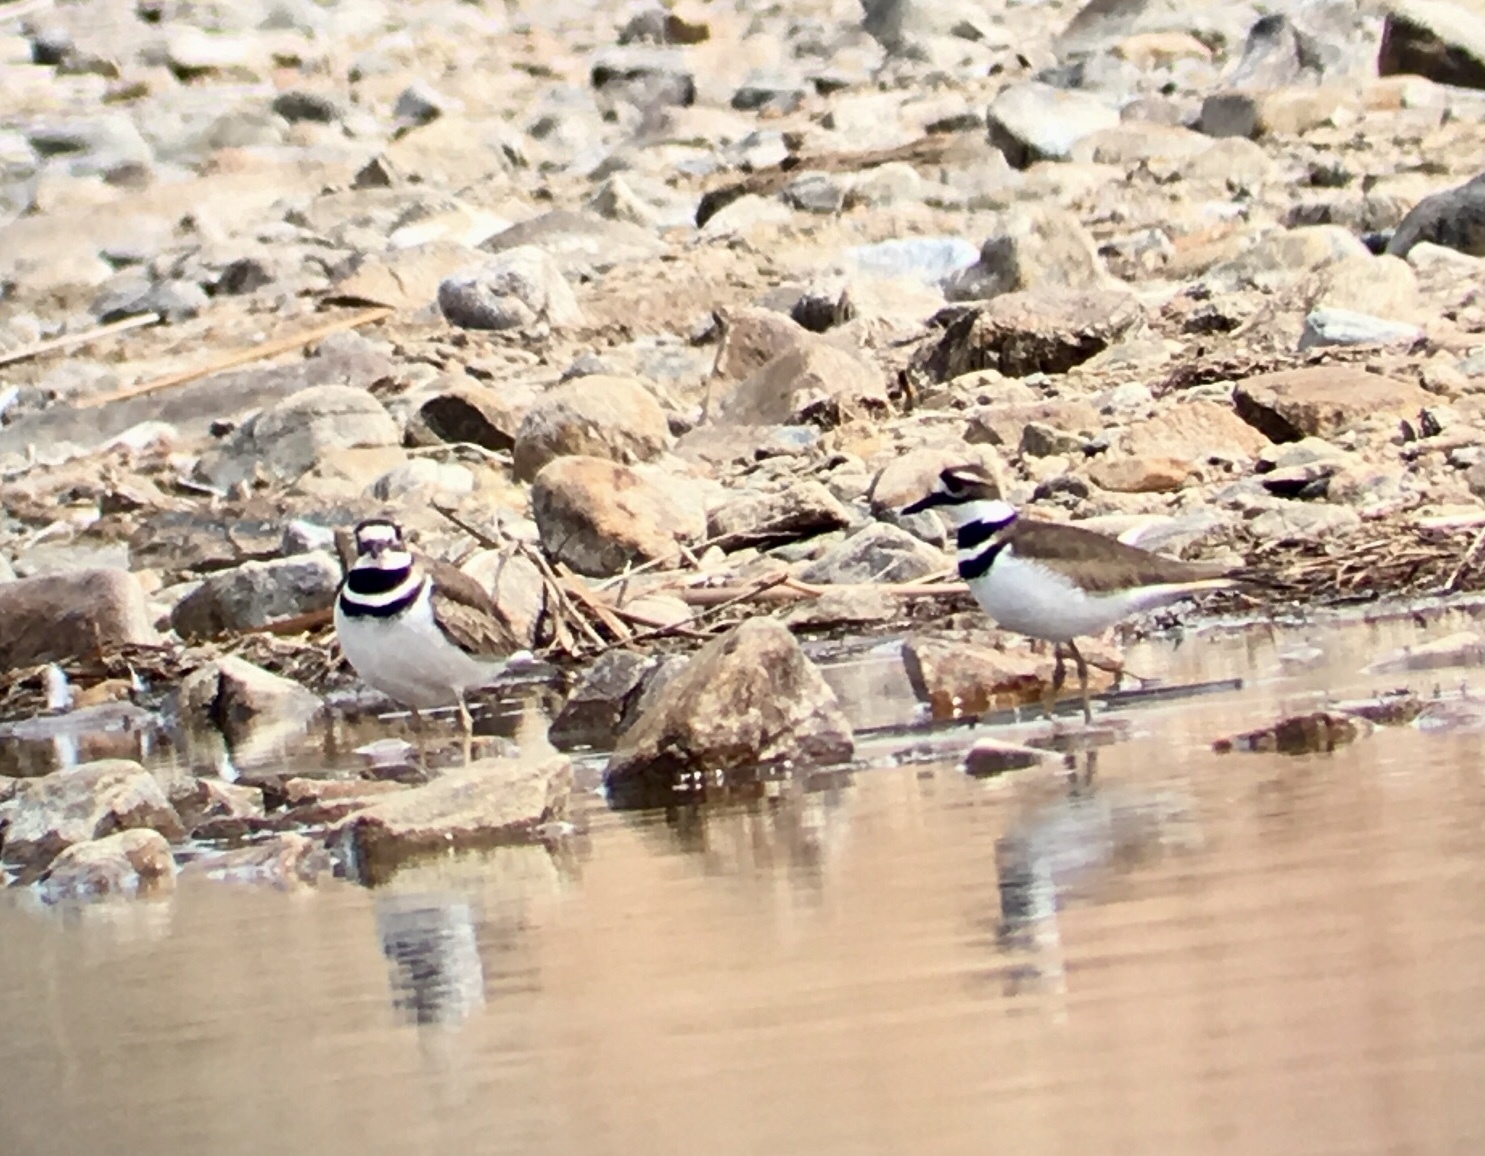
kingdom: Animalia
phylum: Chordata
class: Aves
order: Charadriiformes
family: Charadriidae
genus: Charadrius
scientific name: Charadrius vociferus
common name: Killdeer
